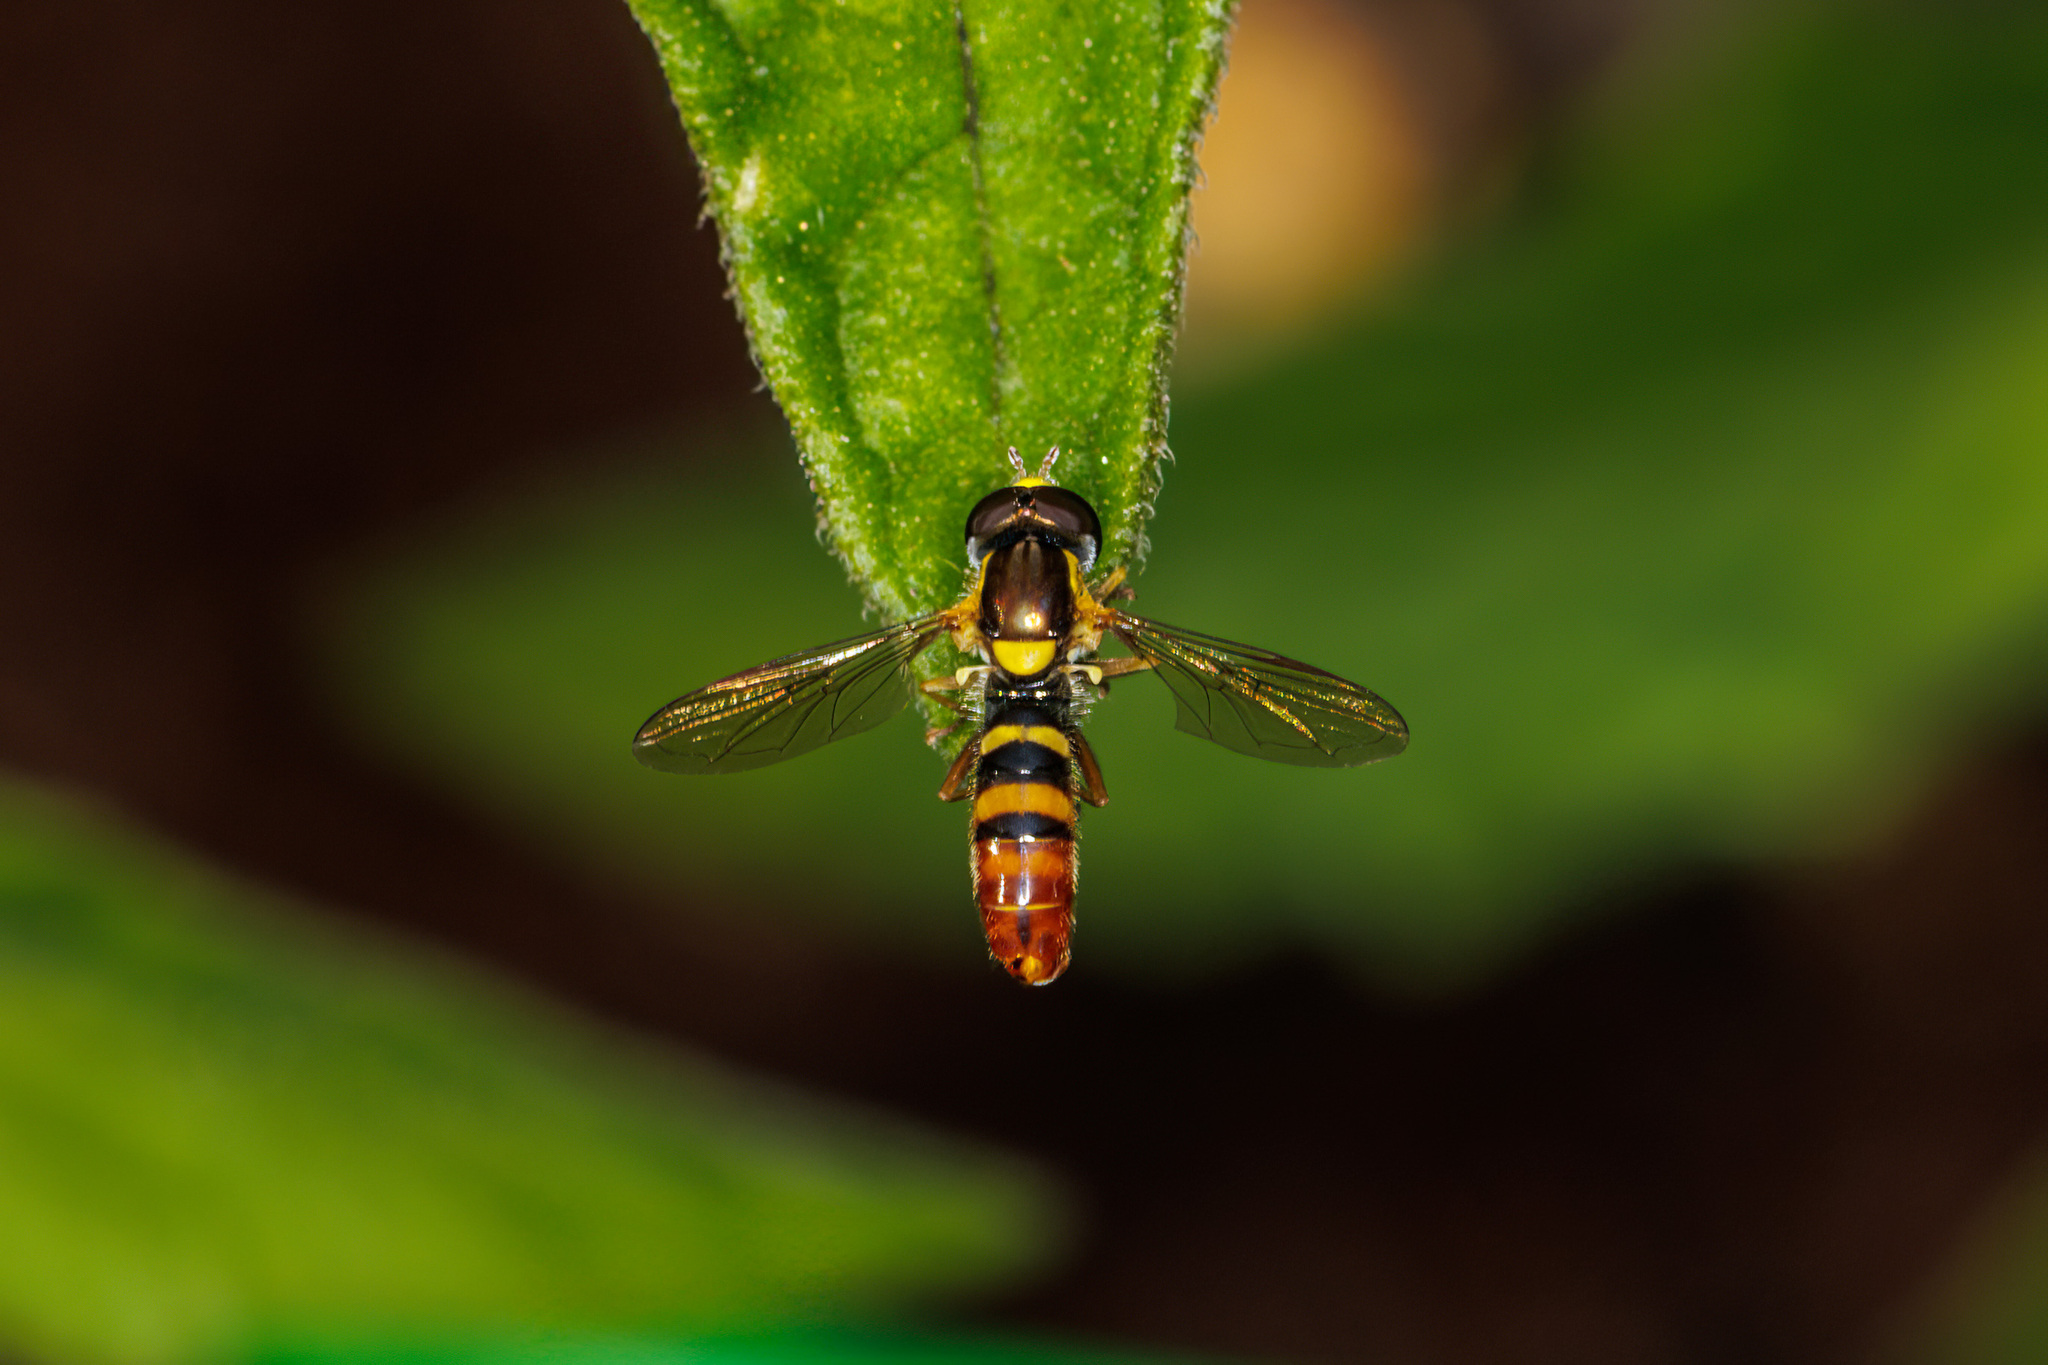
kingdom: Animalia
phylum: Arthropoda
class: Insecta
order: Diptera
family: Syrphidae
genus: Sphaerophoria
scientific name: Sphaerophoria sulphuripes
